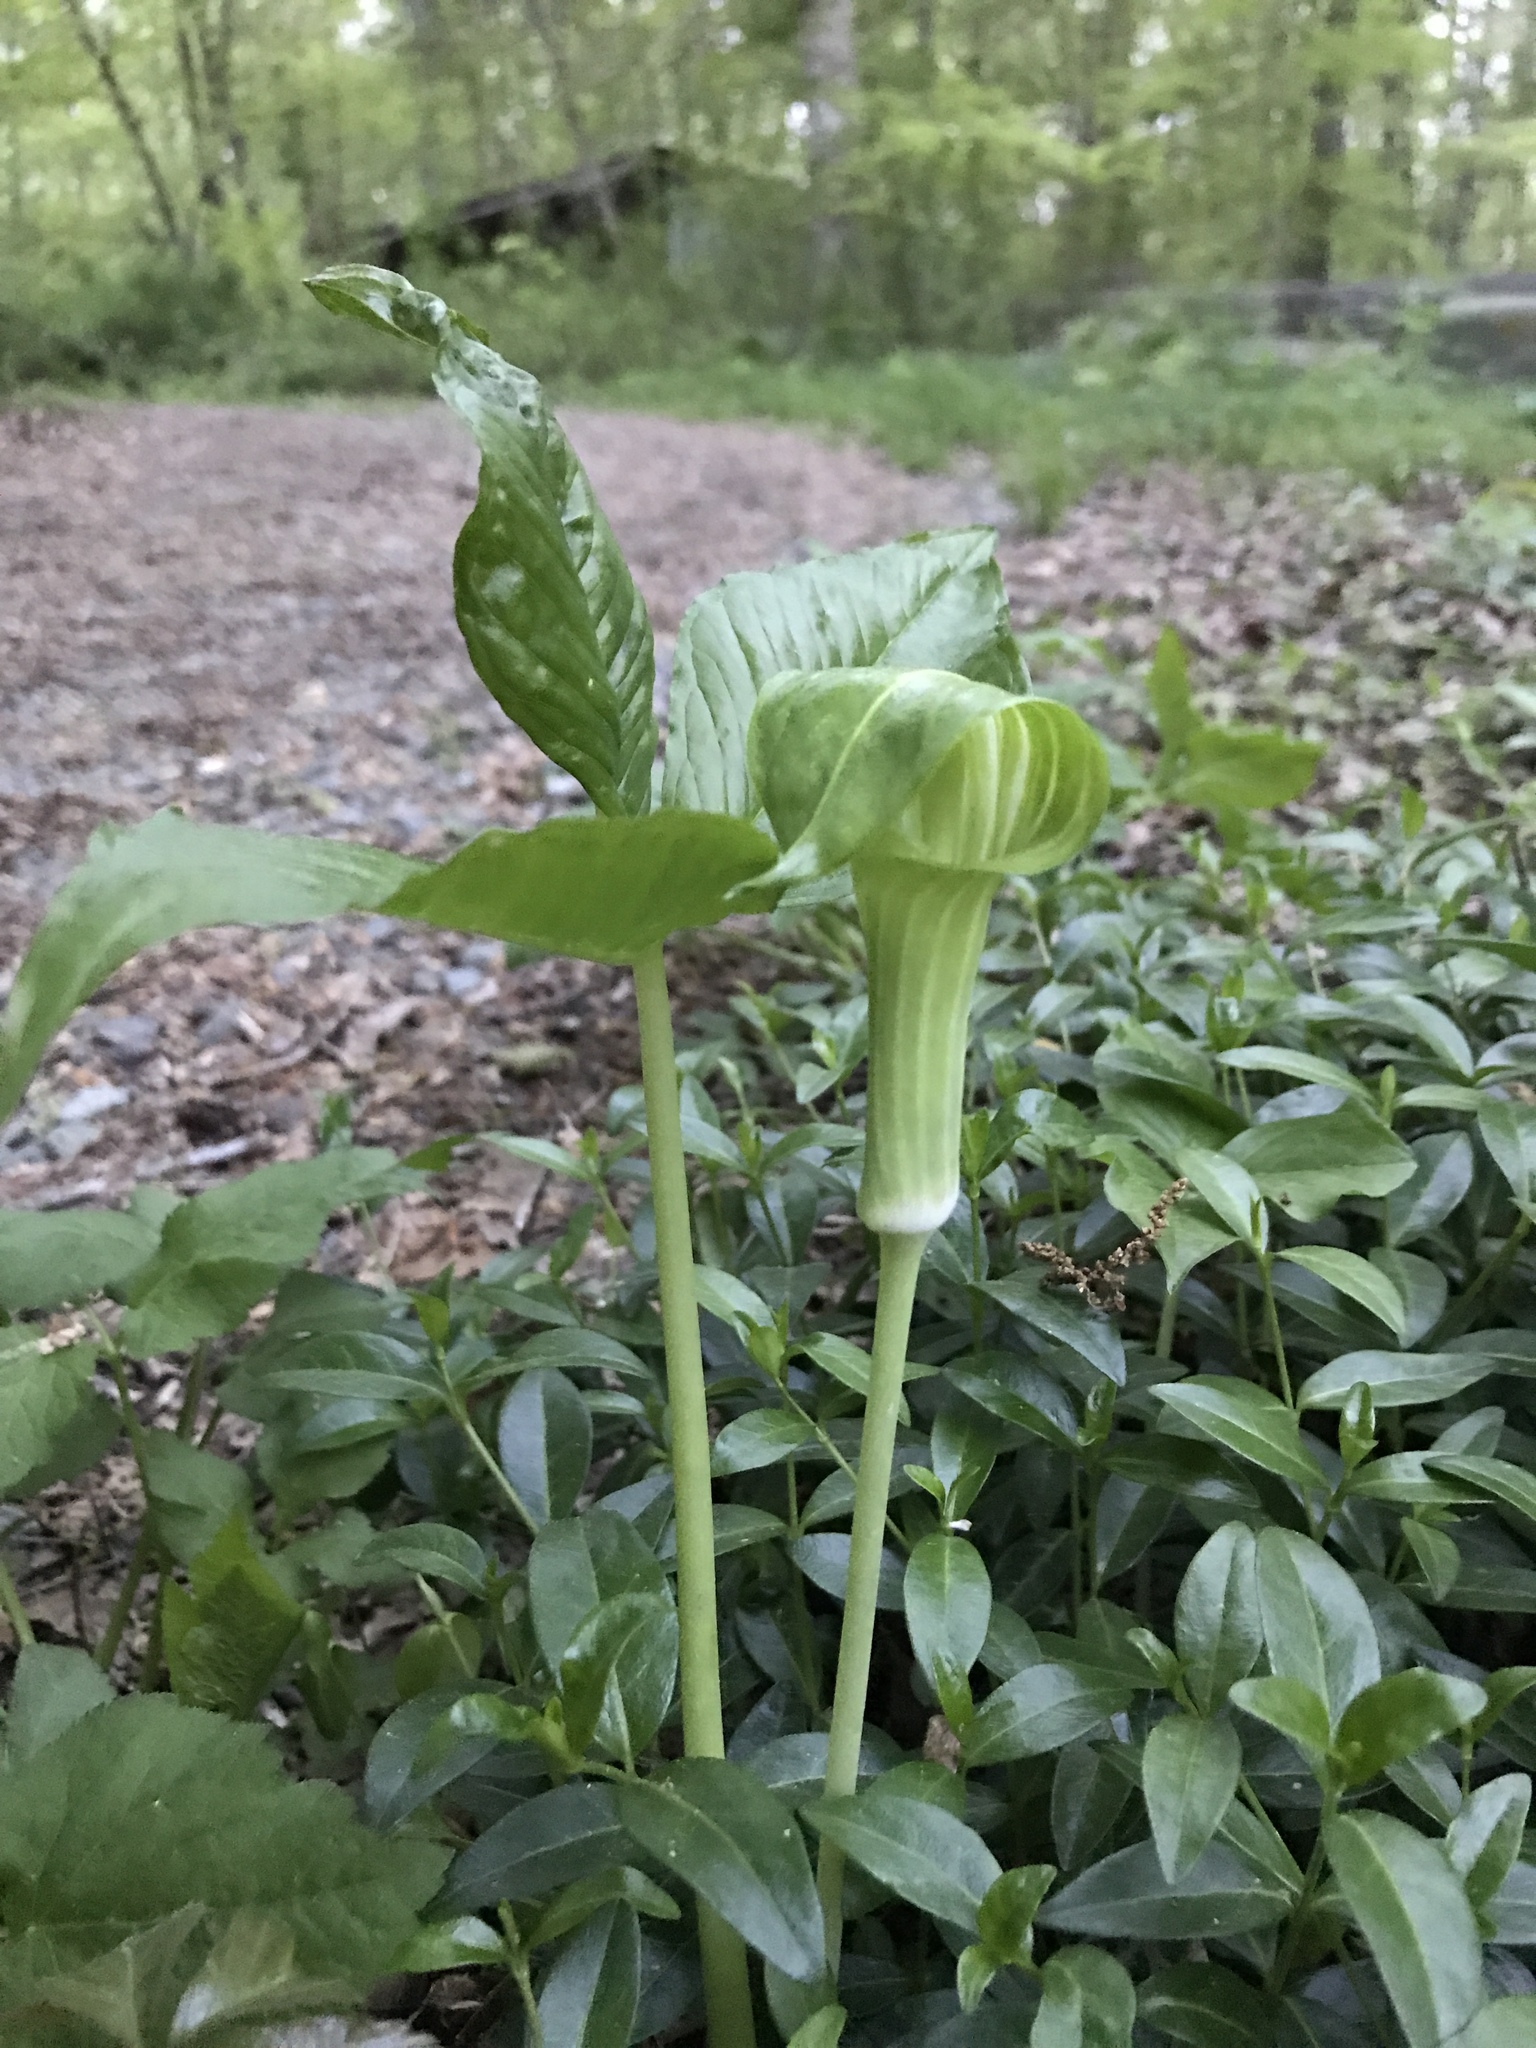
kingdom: Plantae
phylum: Tracheophyta
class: Liliopsida
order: Alismatales
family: Araceae
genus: Arisaema
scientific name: Arisaema triphyllum
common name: Jack-in-the-pulpit
